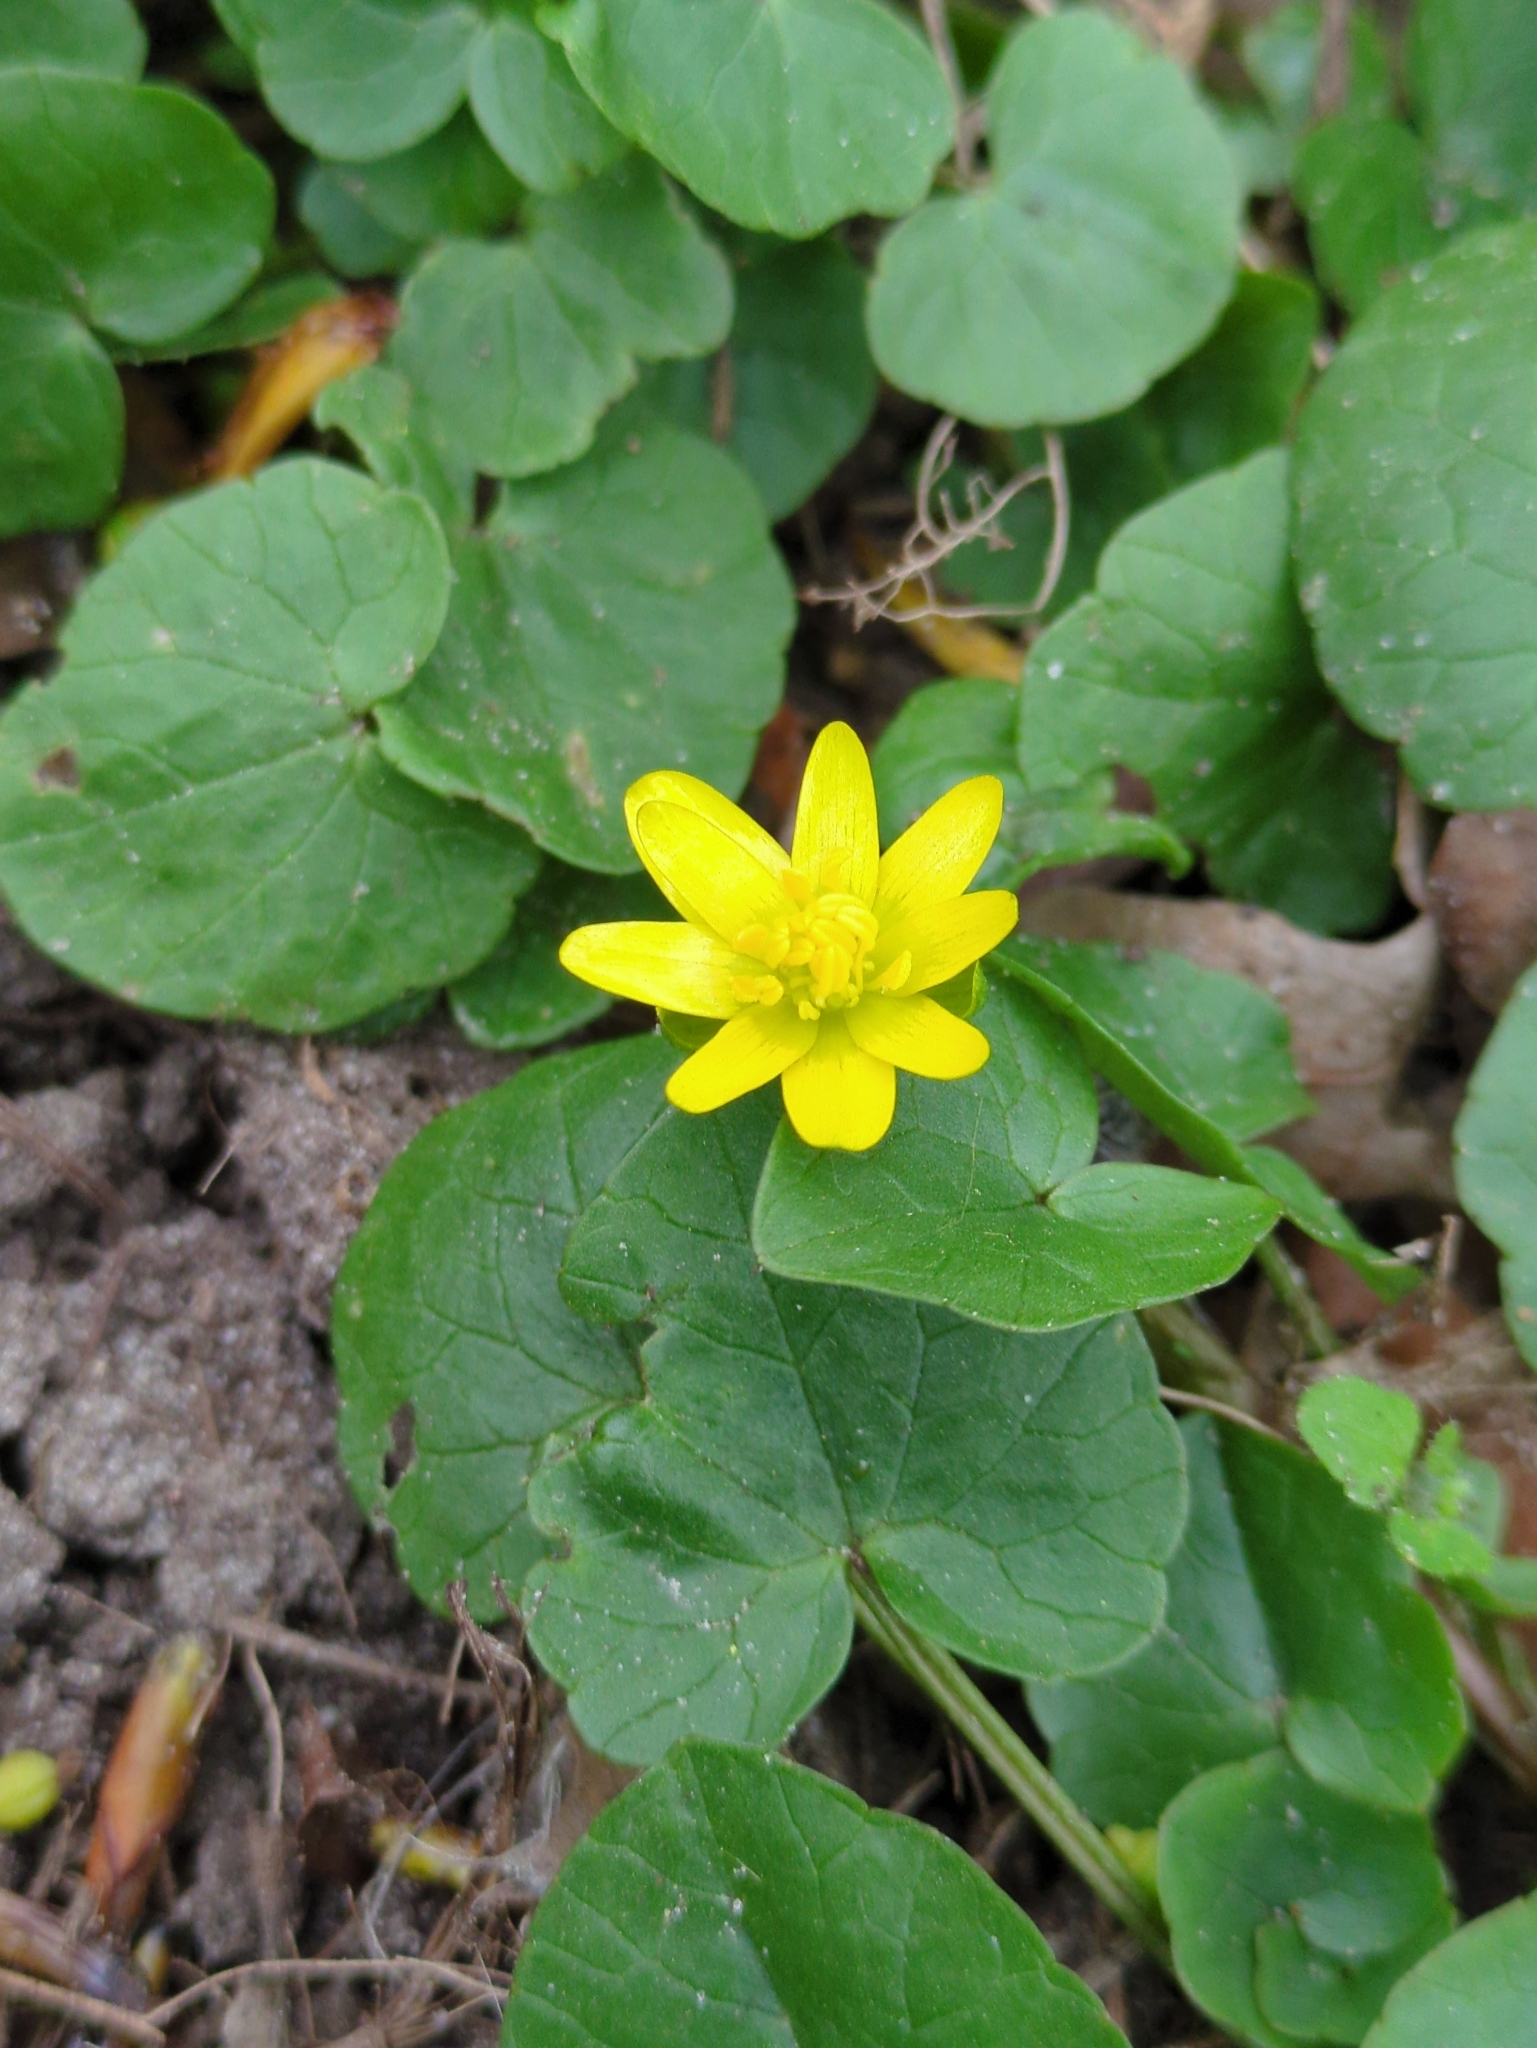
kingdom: Plantae
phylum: Tracheophyta
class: Magnoliopsida
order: Ranunculales
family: Ranunculaceae
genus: Ficaria
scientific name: Ficaria verna
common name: Lesser celandine
